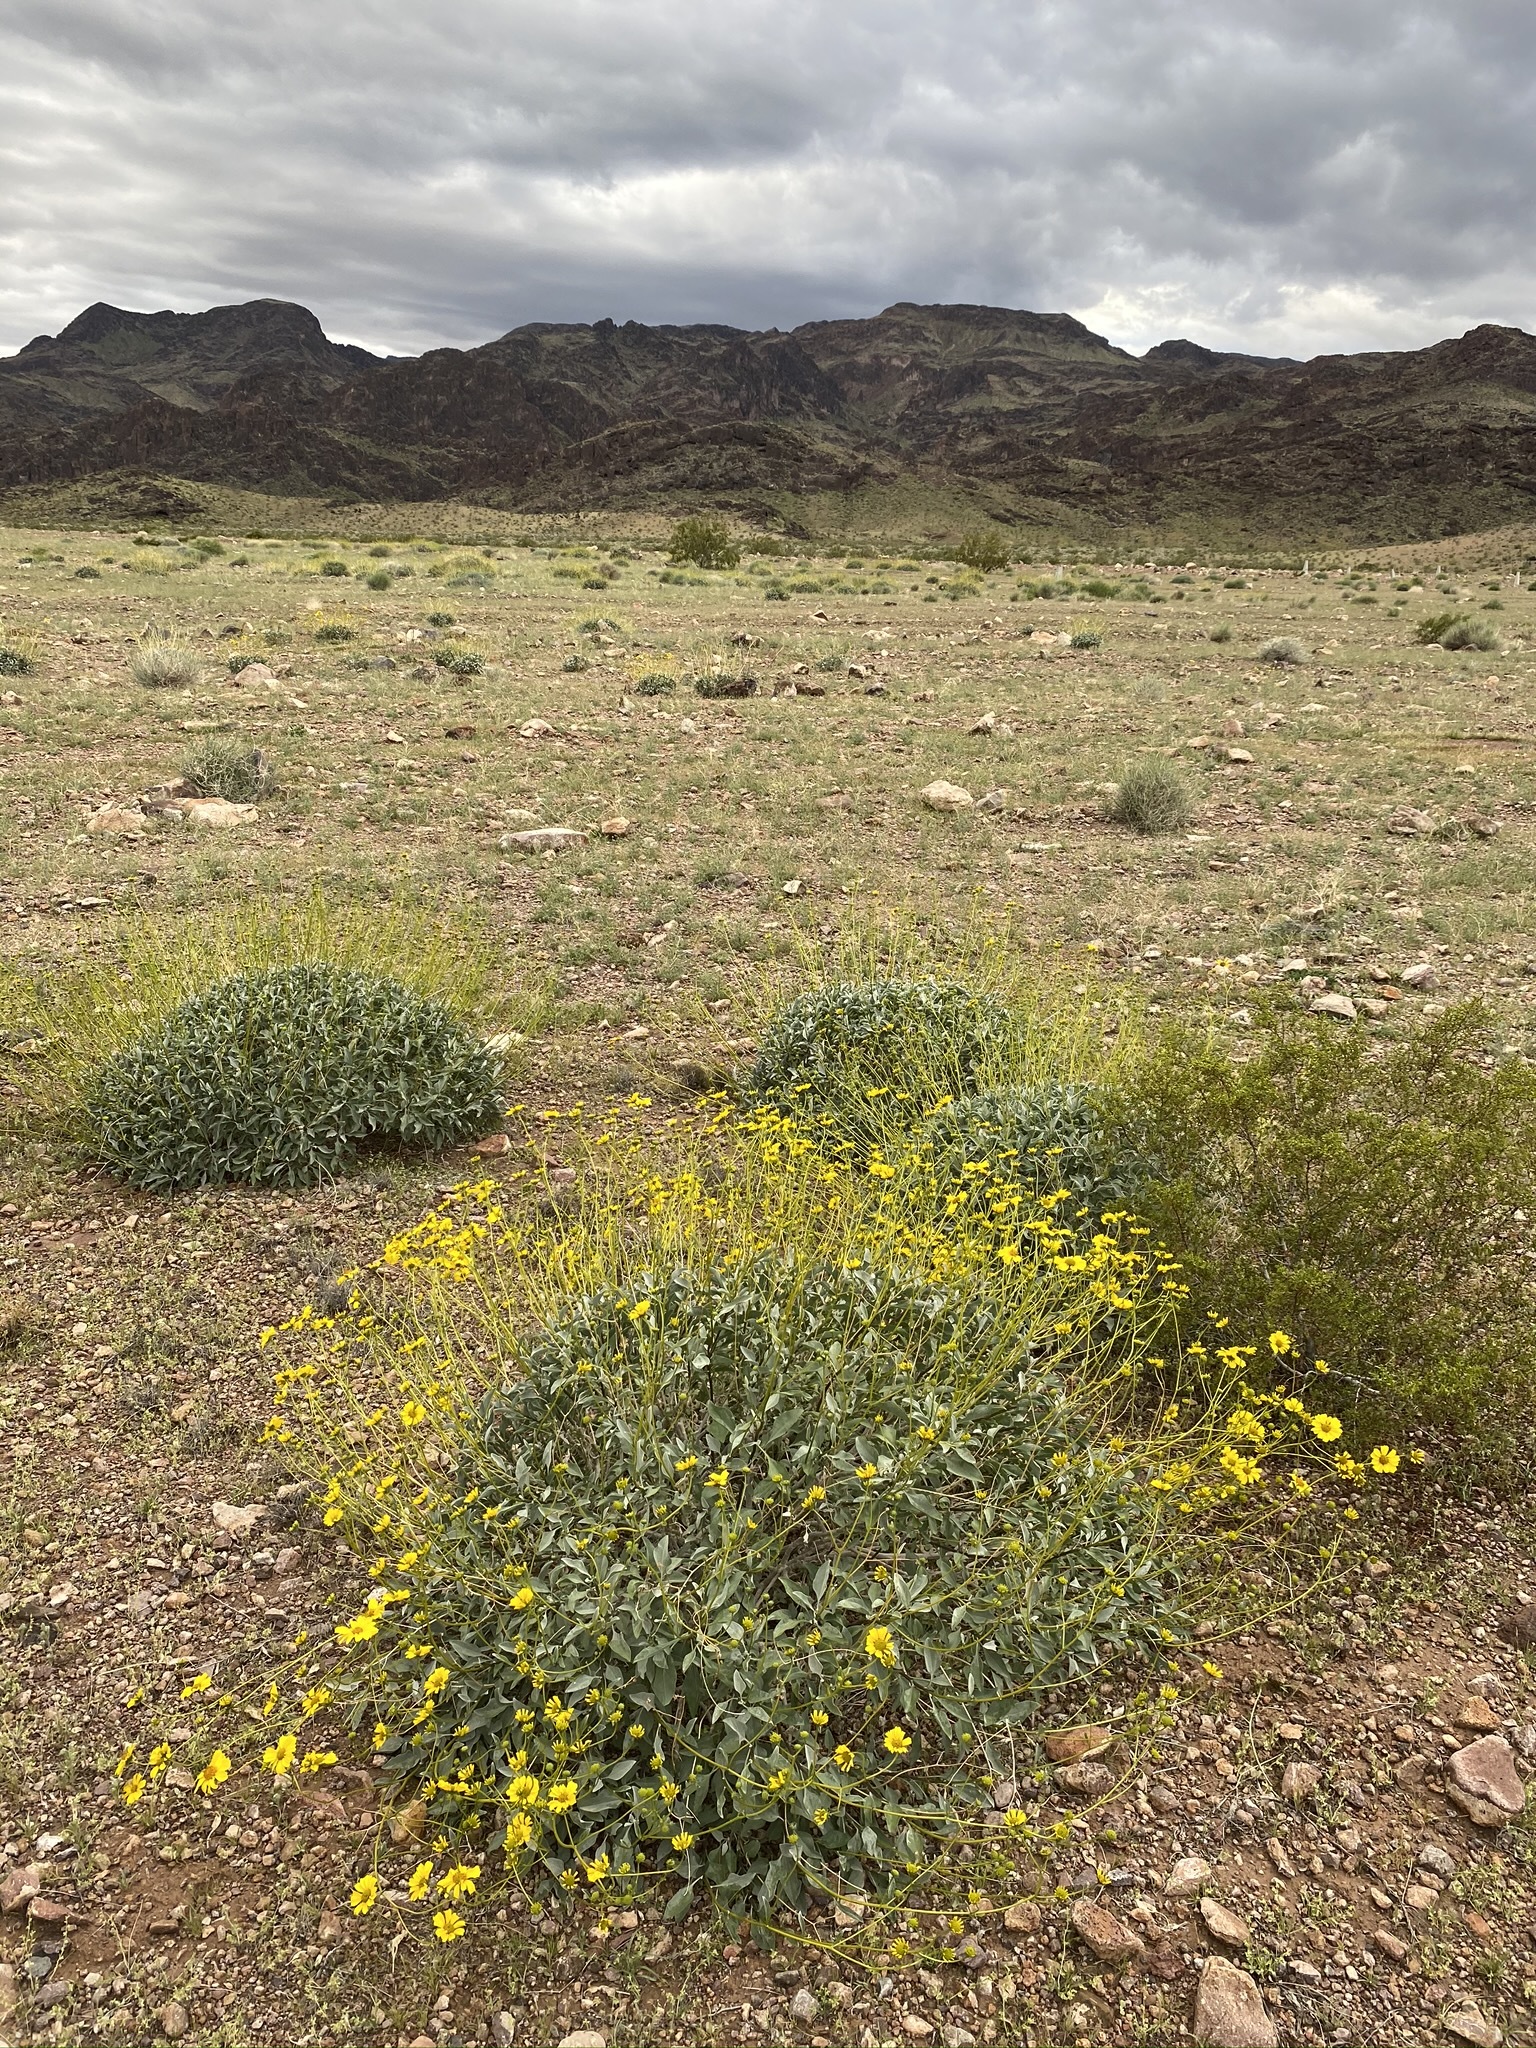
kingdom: Plantae
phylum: Tracheophyta
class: Magnoliopsida
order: Asterales
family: Asteraceae
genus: Encelia
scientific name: Encelia farinosa
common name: Brittlebush
